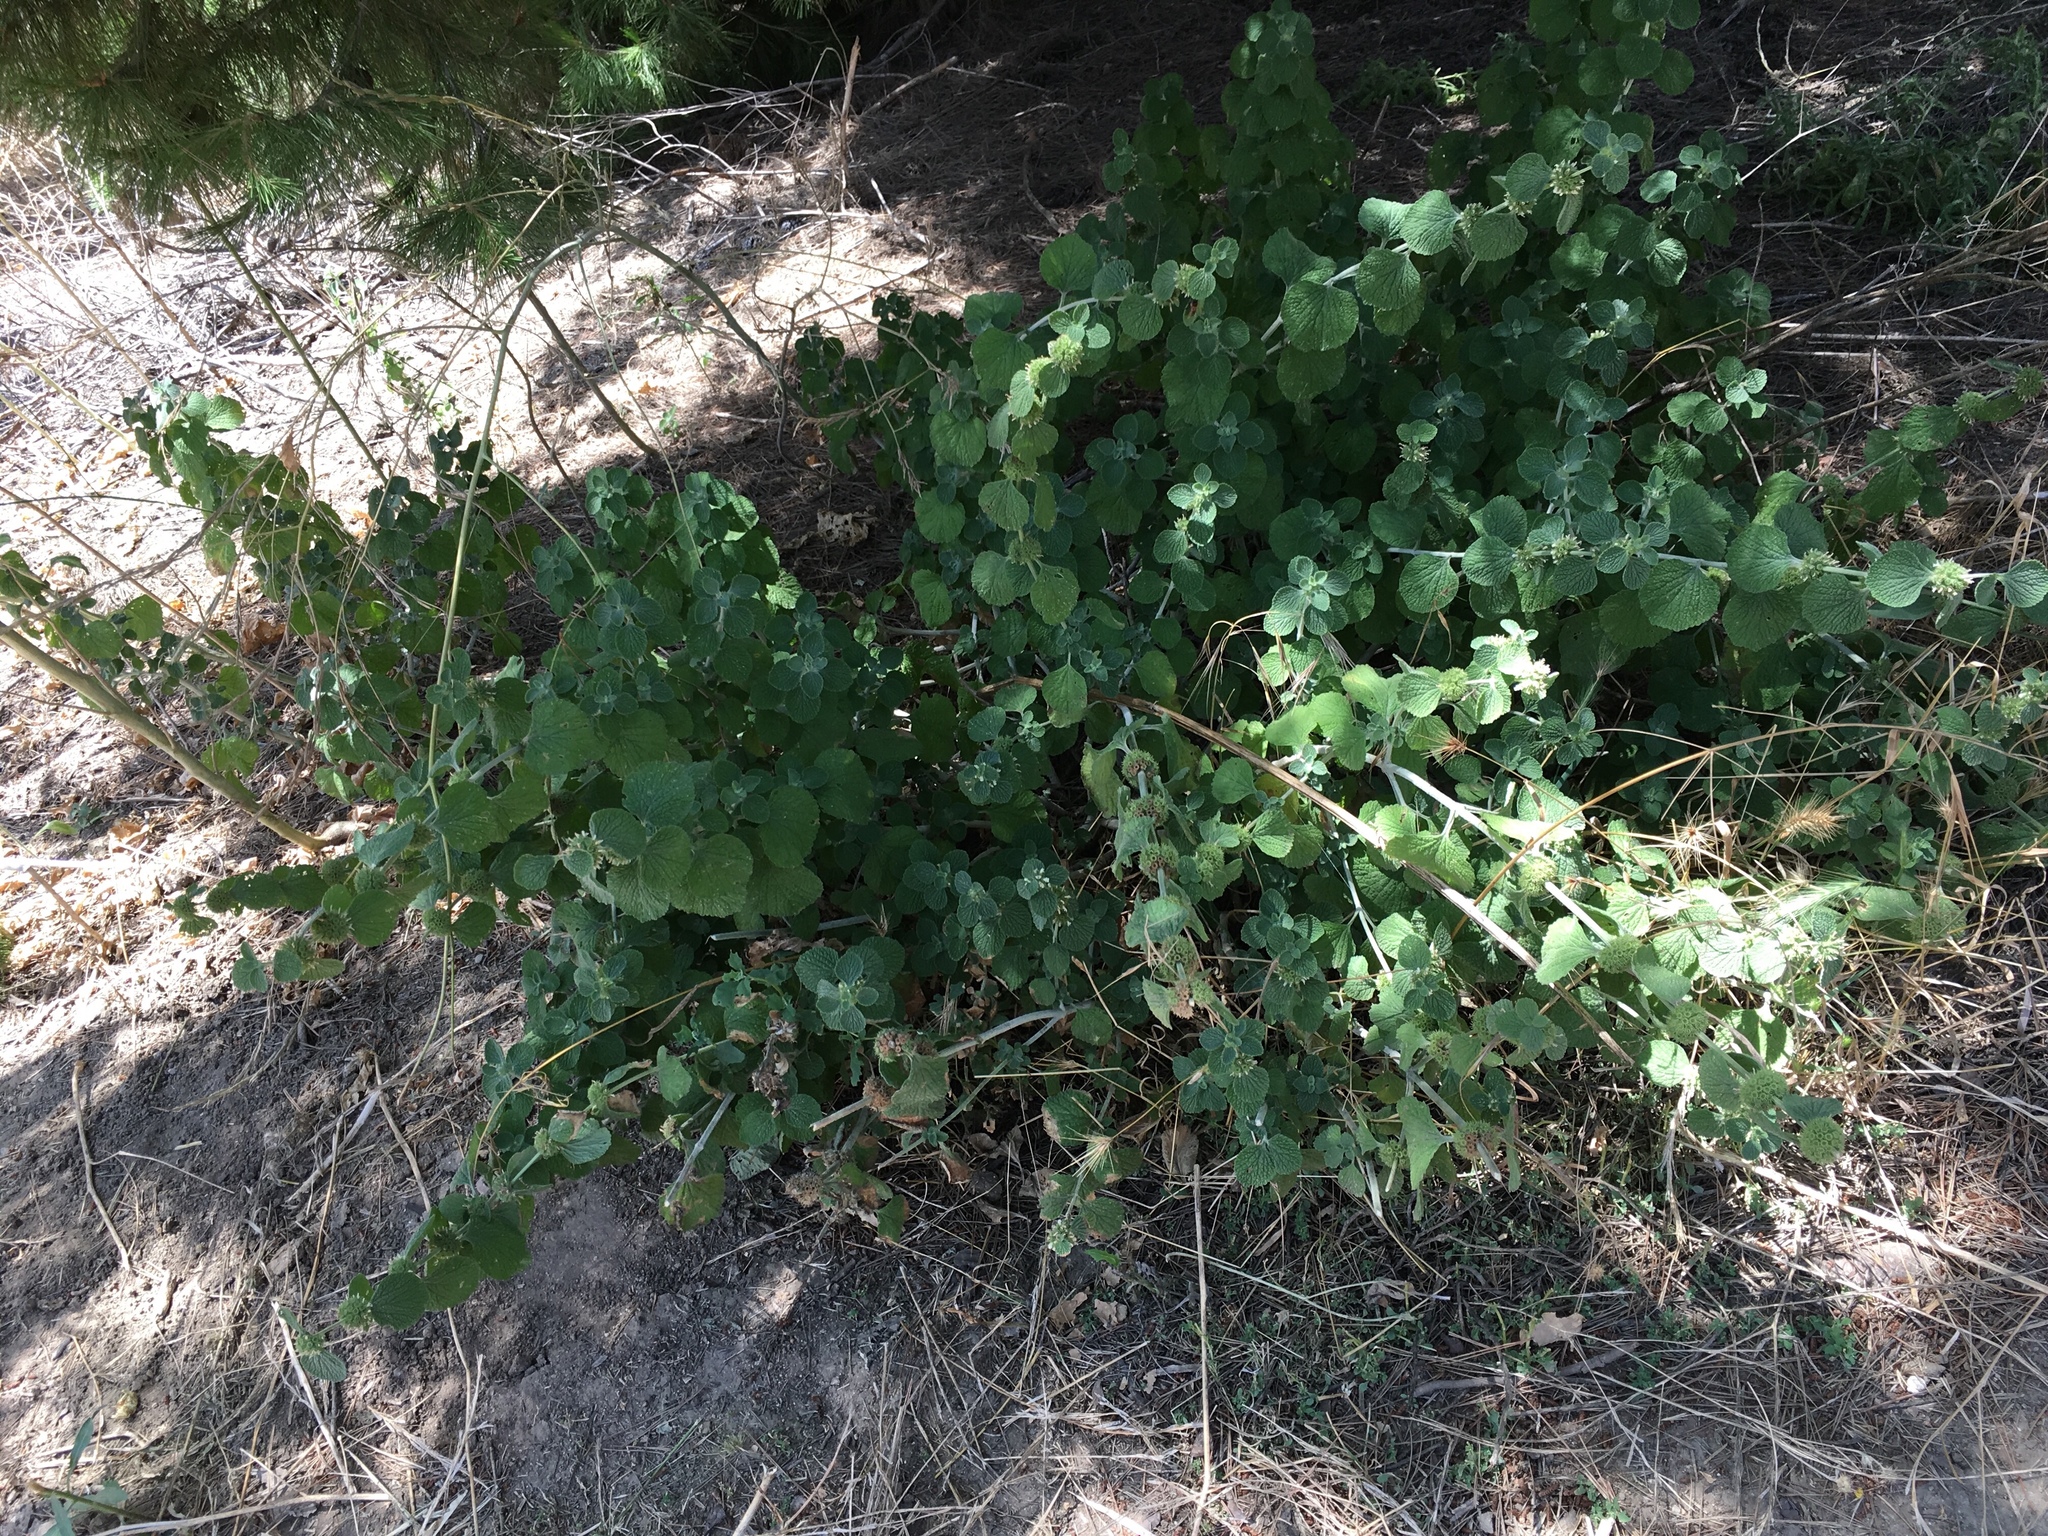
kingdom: Plantae
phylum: Tracheophyta
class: Magnoliopsida
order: Lamiales
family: Lamiaceae
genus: Marrubium
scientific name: Marrubium vulgare
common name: Horehound
